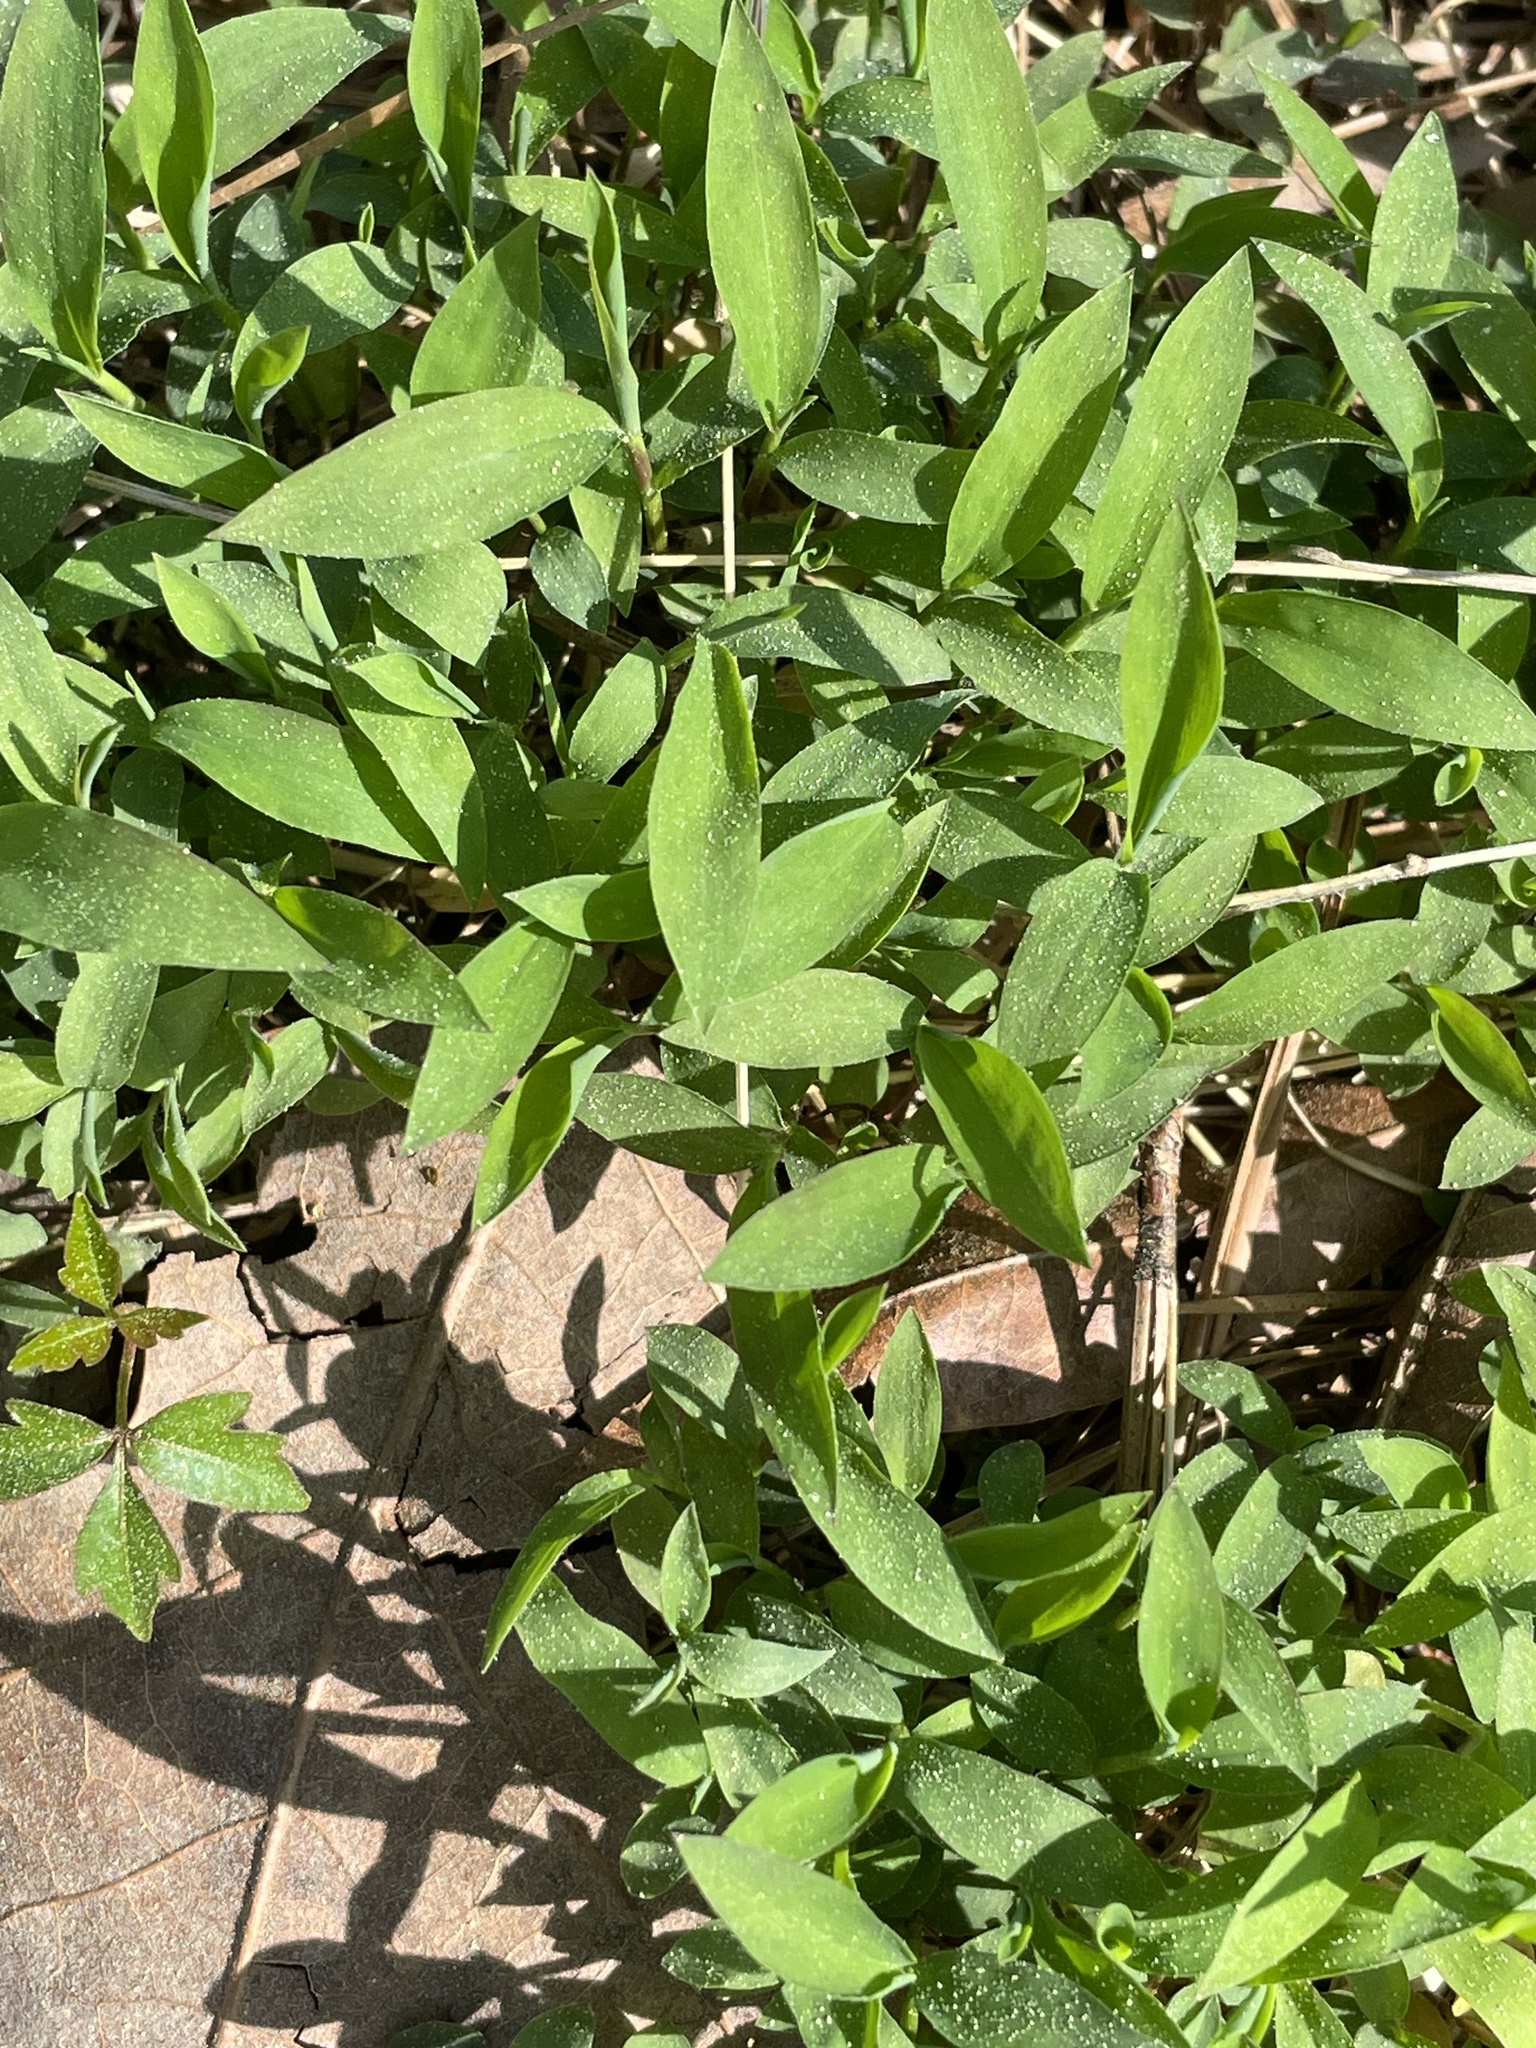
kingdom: Plantae
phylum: Tracheophyta
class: Liliopsida
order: Poales
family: Poaceae
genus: Microstegium
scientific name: Microstegium vimineum
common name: Japanese stiltgrass
